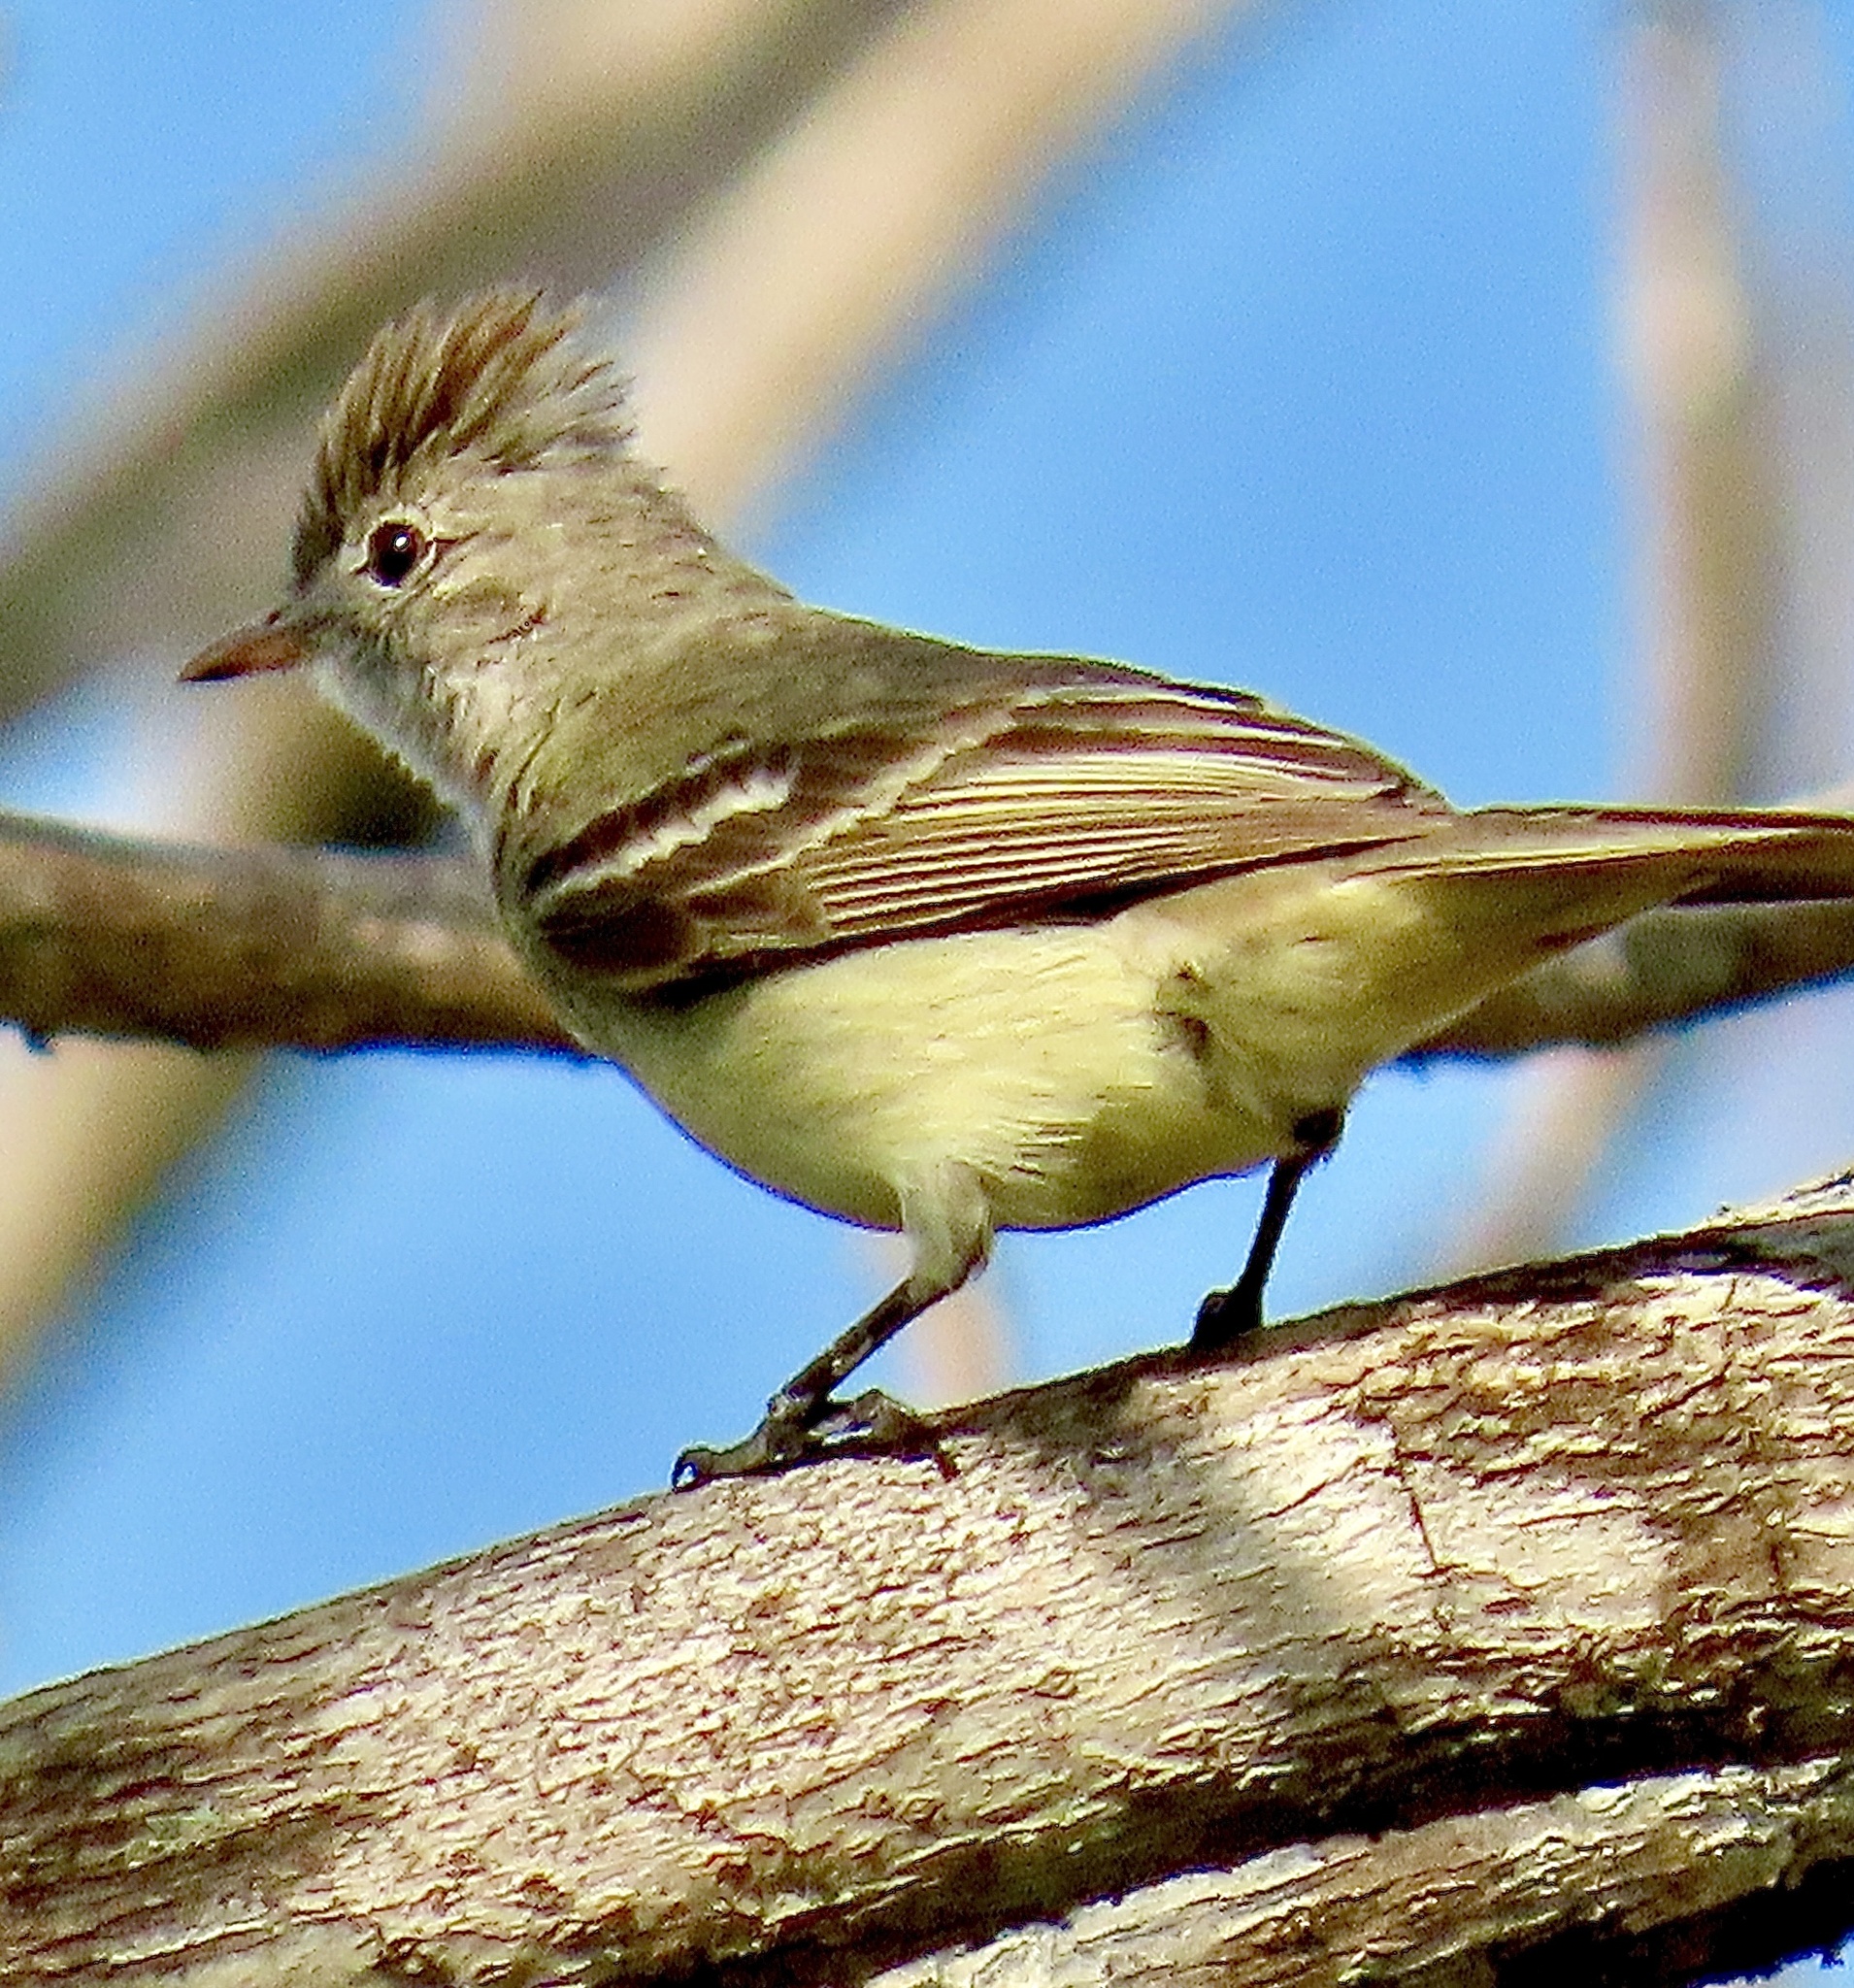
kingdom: Animalia
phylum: Chordata
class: Aves
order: Passeriformes
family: Tyrannidae
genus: Elaenia
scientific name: Elaenia flavogaster
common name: Yellow-bellied elaenia
